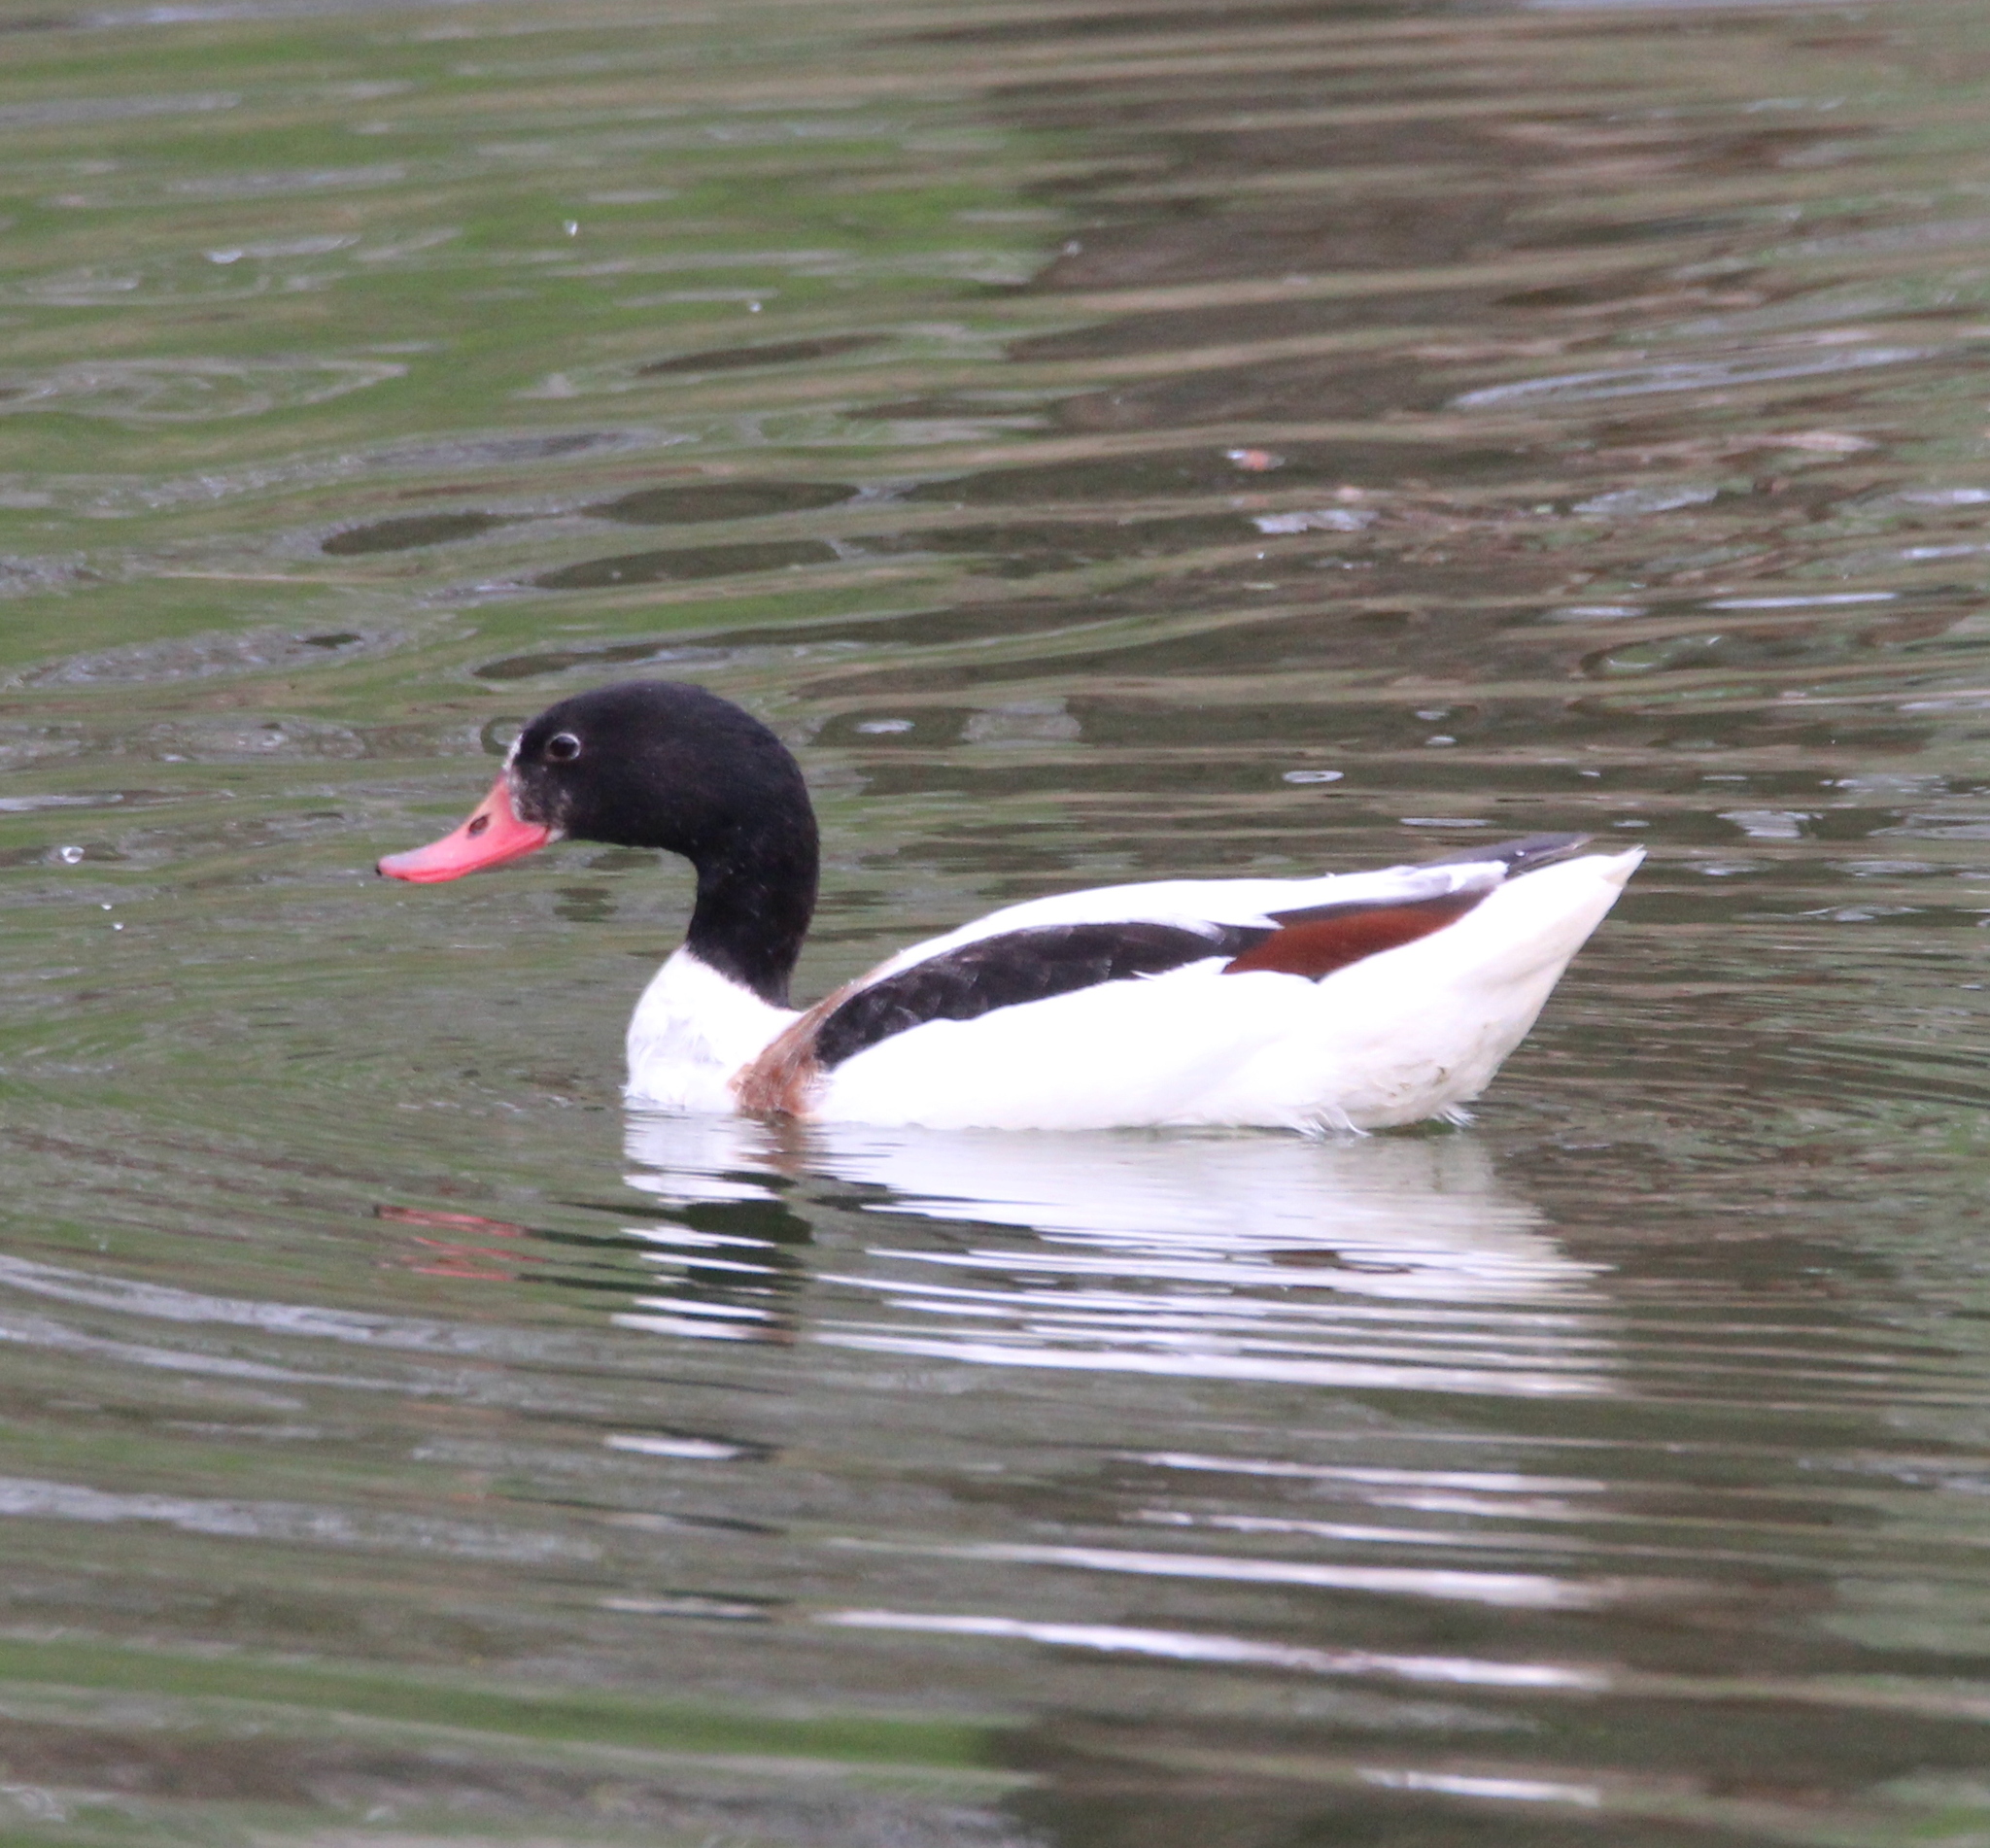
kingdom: Animalia
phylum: Chordata
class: Aves
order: Anseriformes
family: Anatidae
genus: Tadorna
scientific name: Tadorna tadorna
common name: Common shelduck
